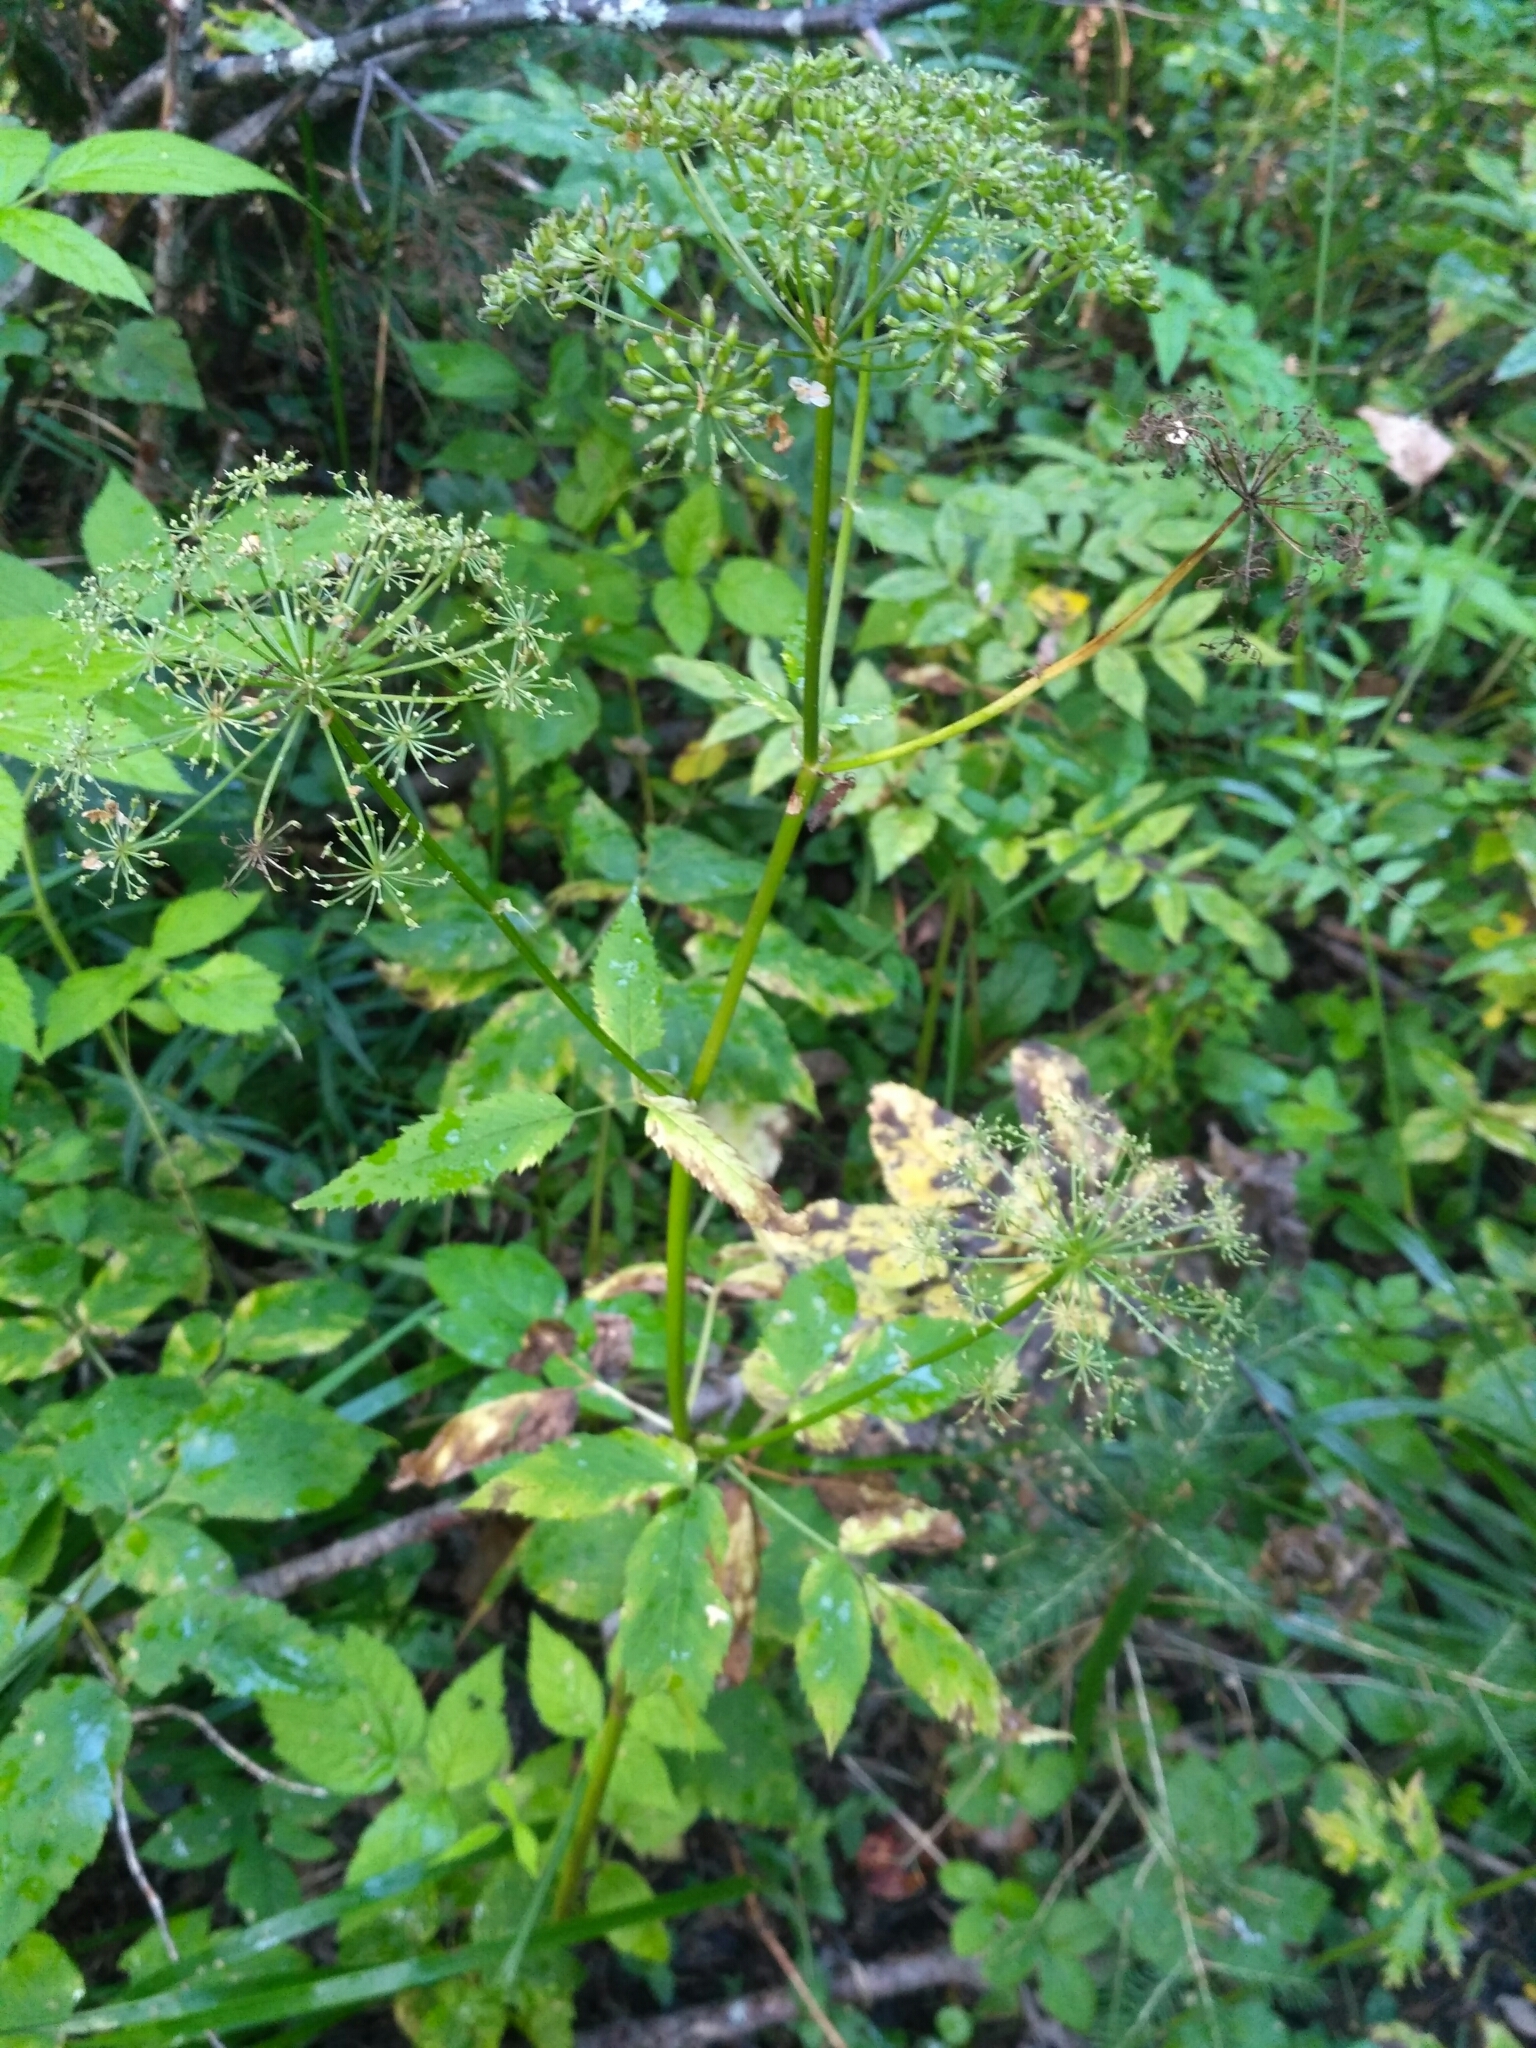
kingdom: Plantae
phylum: Tracheophyta
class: Magnoliopsida
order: Apiales
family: Apiaceae
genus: Aegopodium
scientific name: Aegopodium podagraria
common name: Ground-elder
